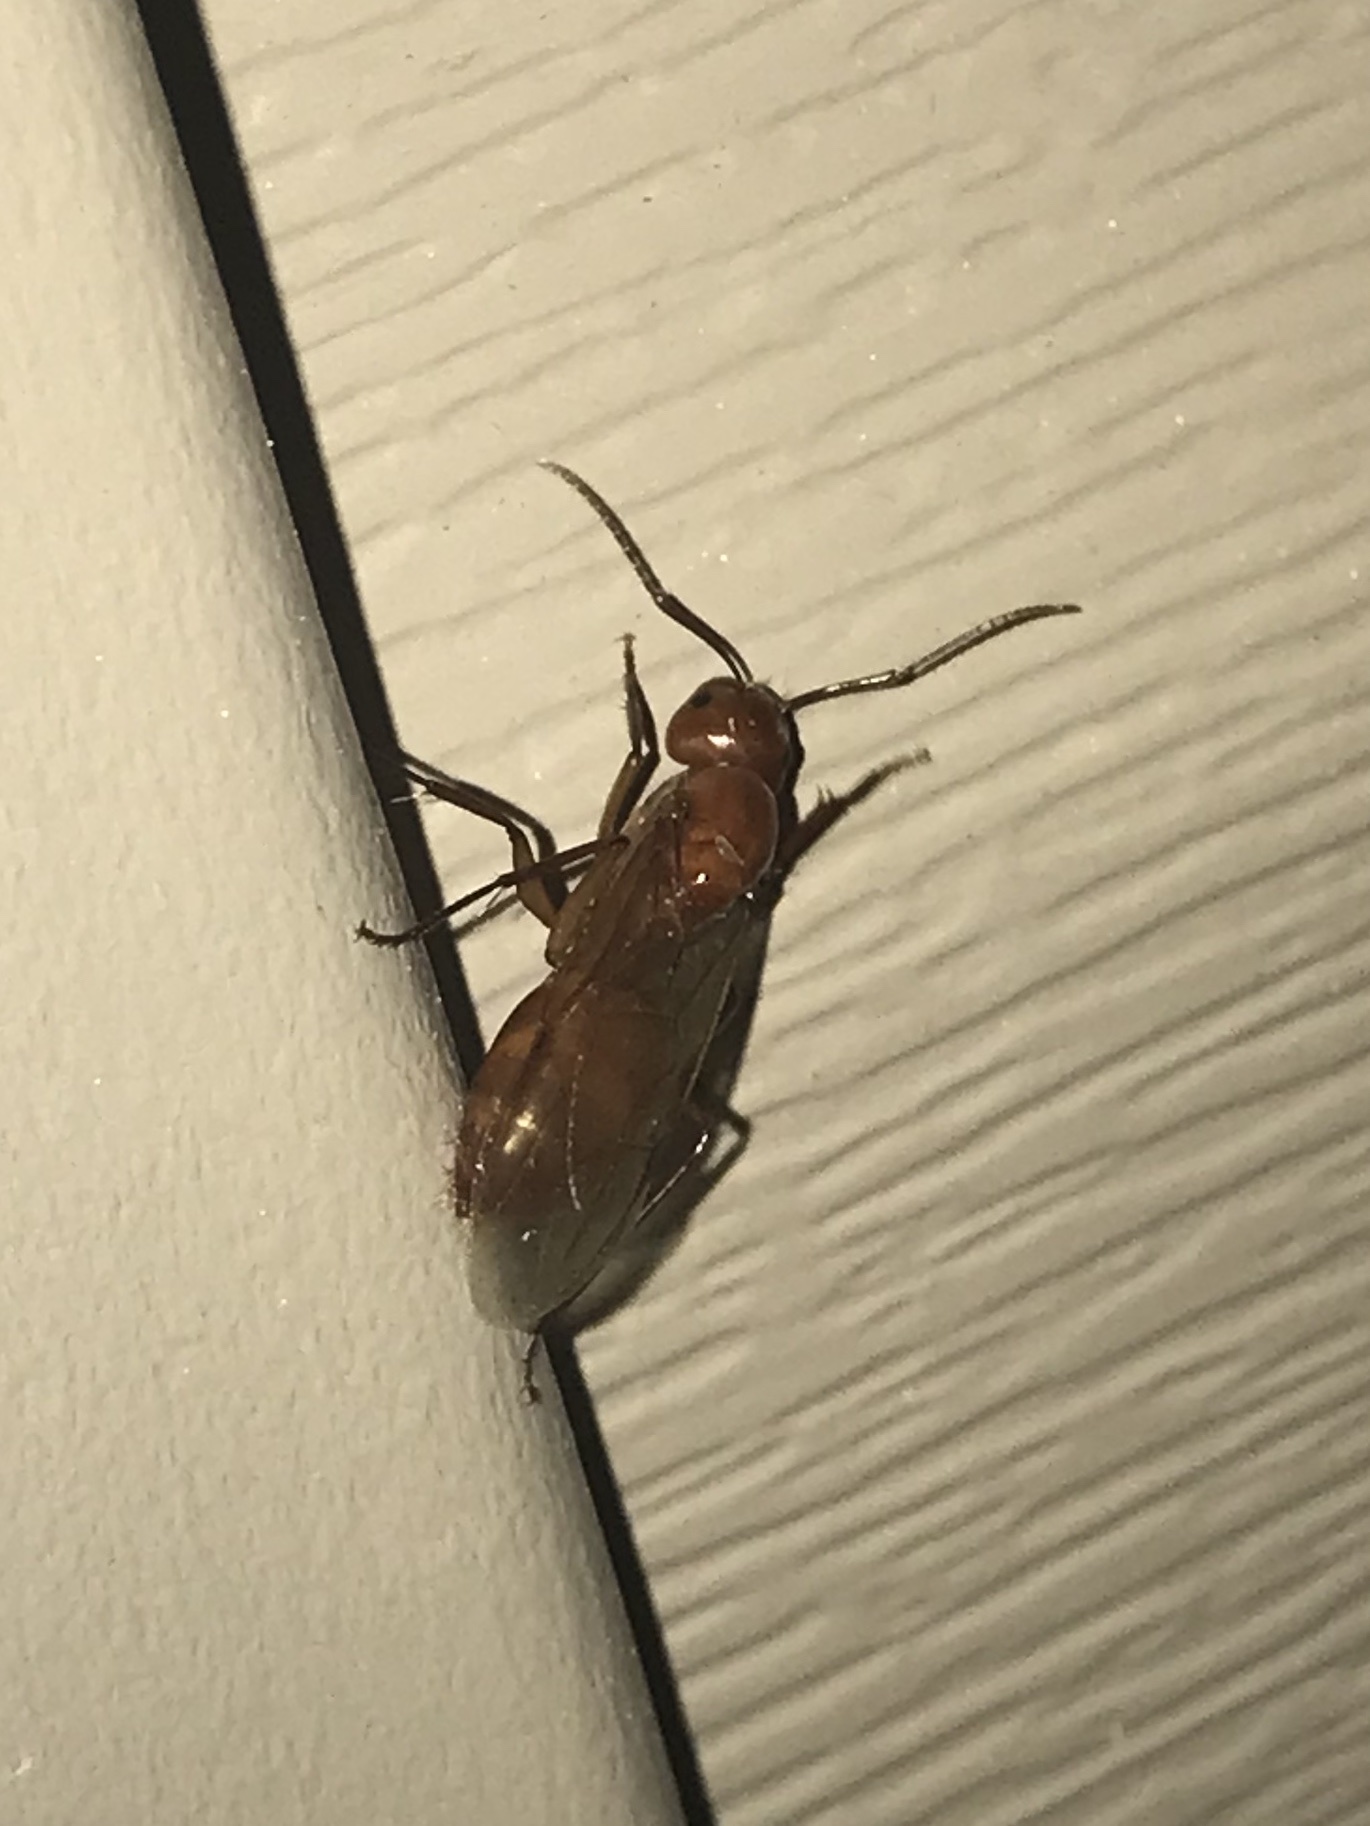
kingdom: Animalia
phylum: Arthropoda
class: Insecta
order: Hymenoptera
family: Formicidae
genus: Camponotus
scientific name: Camponotus castaneus
